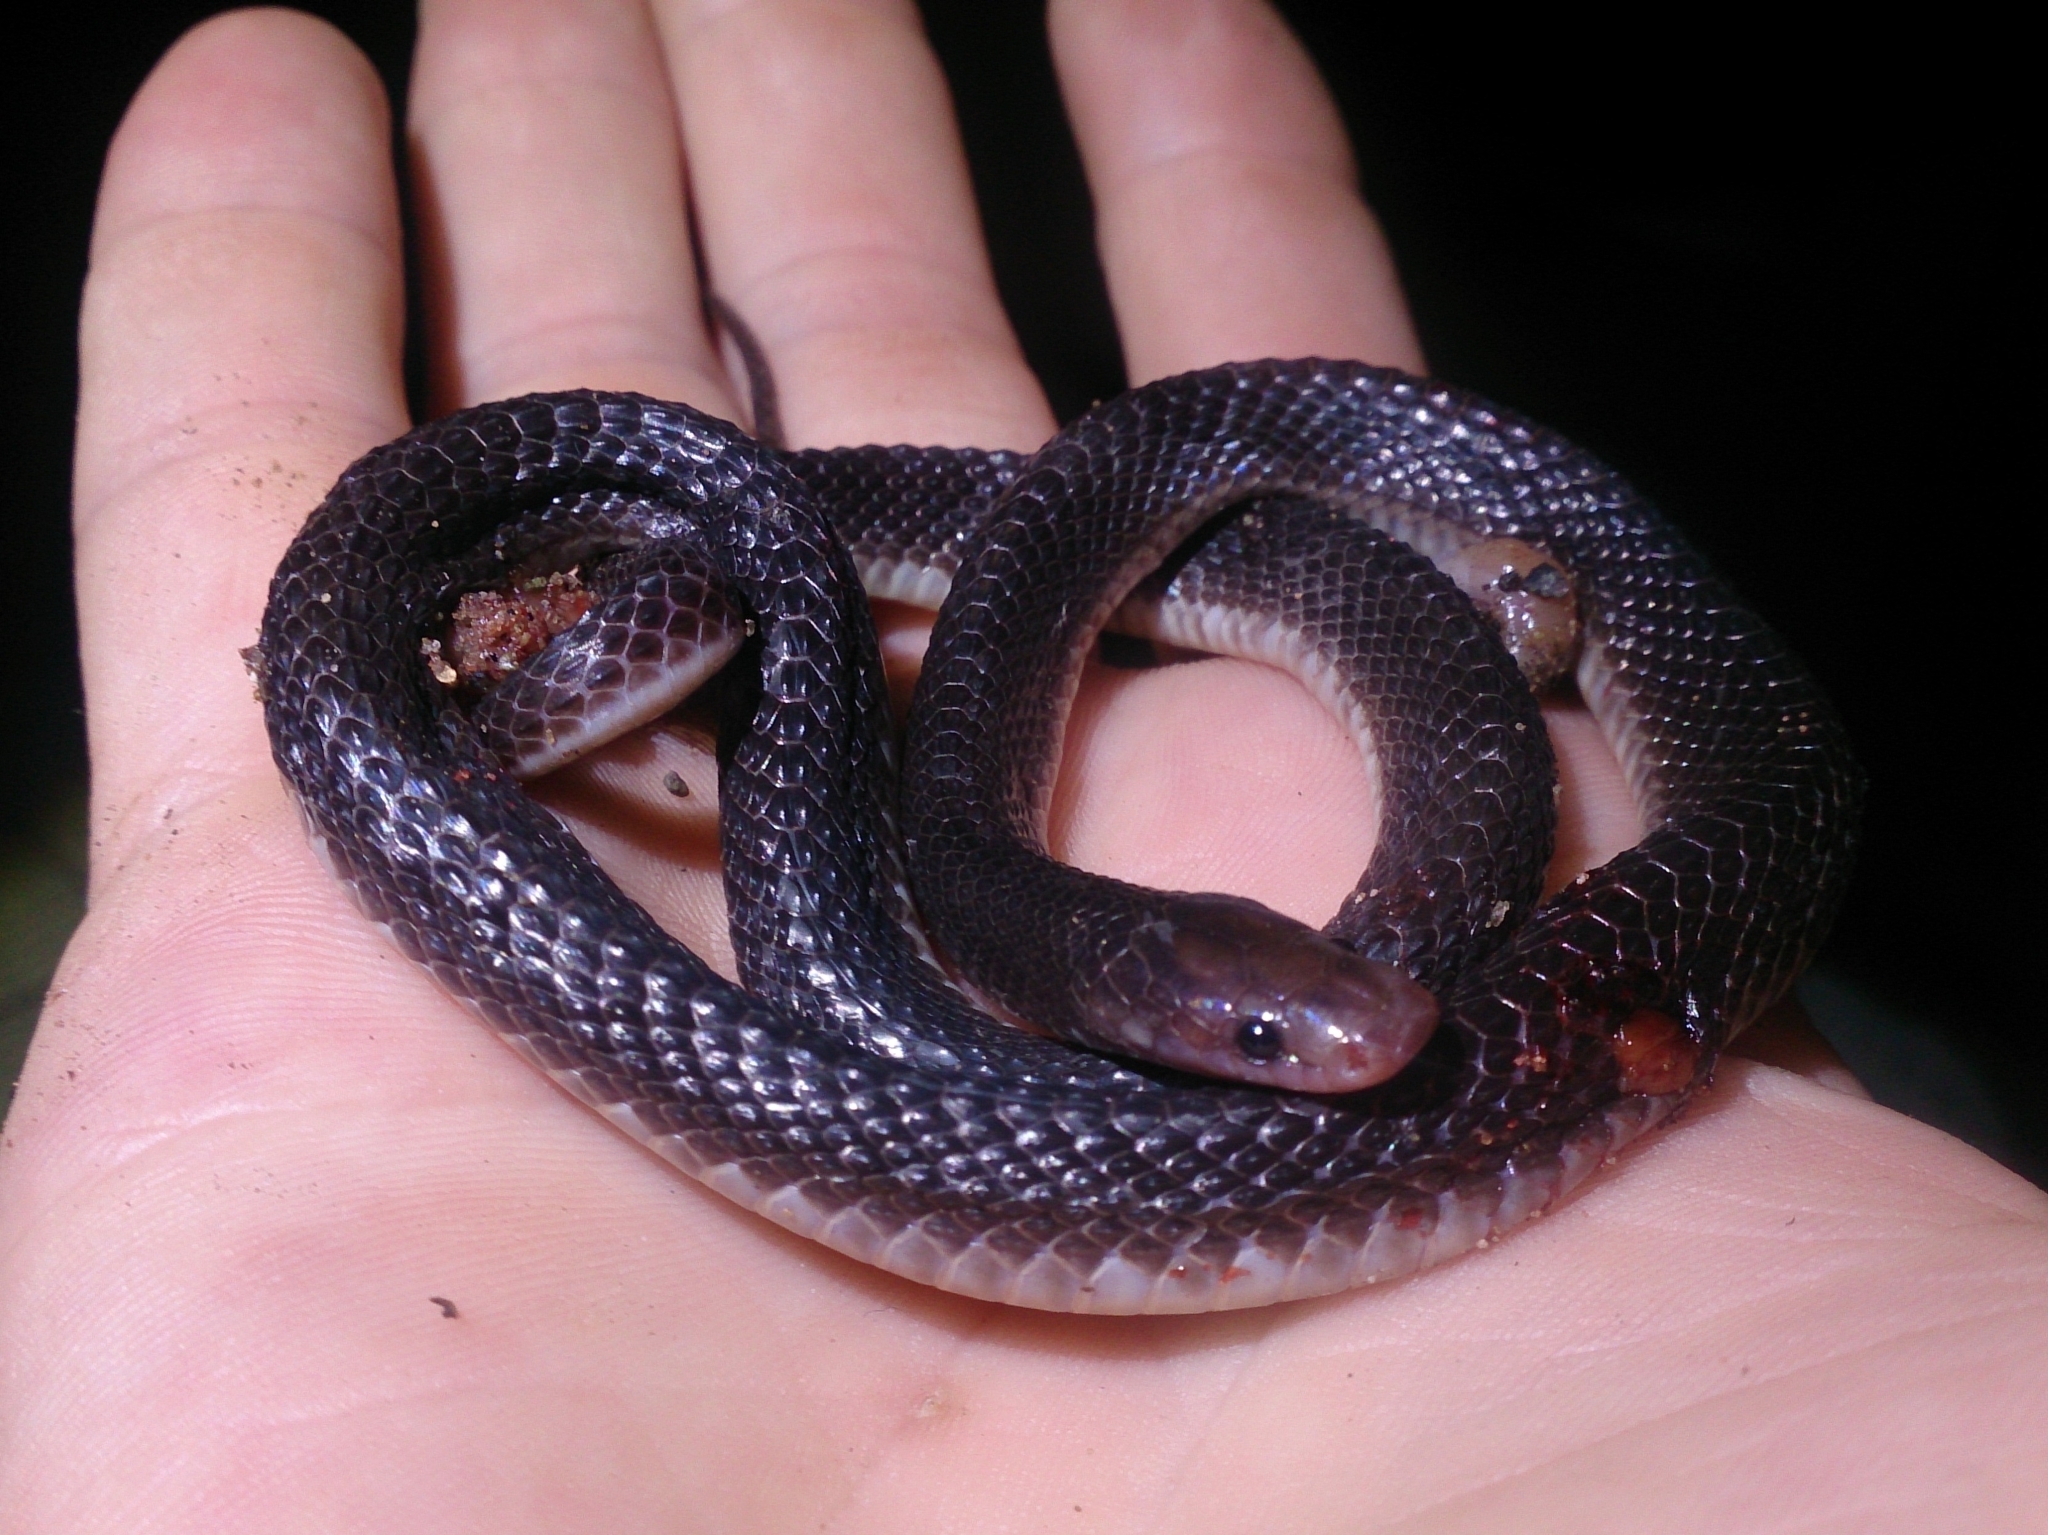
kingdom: Animalia
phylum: Chordata
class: Squamata
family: Lamprophiidae
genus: Gracililima
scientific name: Gracililima nyassae
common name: Black file snake
